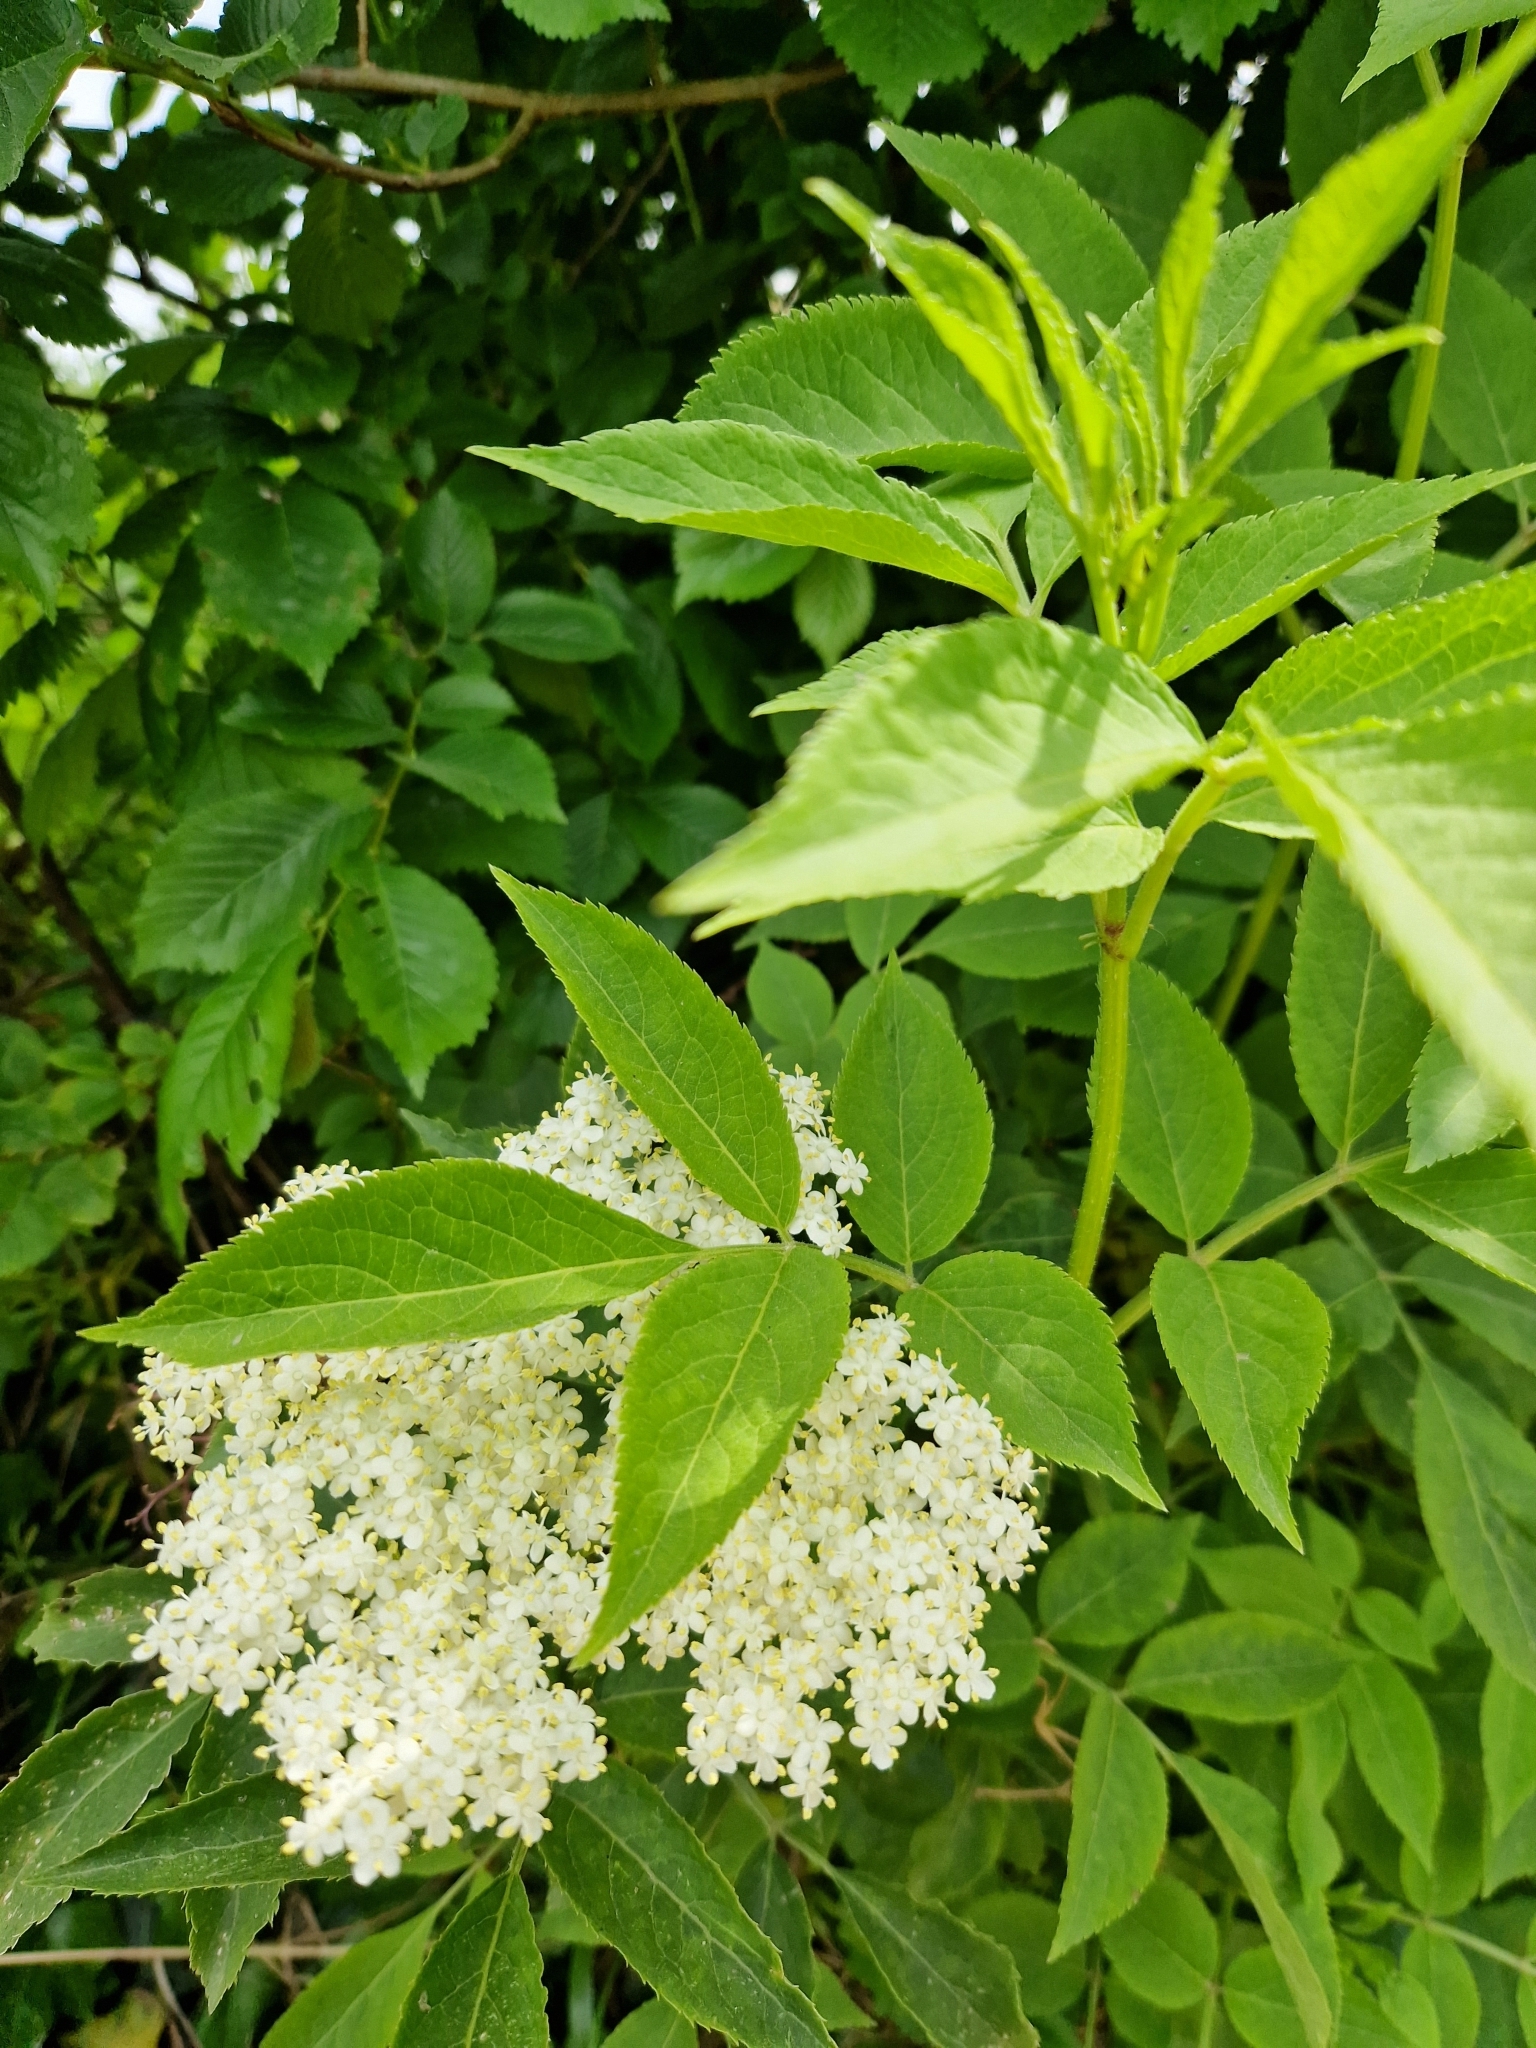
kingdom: Plantae
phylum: Tracheophyta
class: Magnoliopsida
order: Dipsacales
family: Viburnaceae
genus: Sambucus
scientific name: Sambucus nigra
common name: Elder
